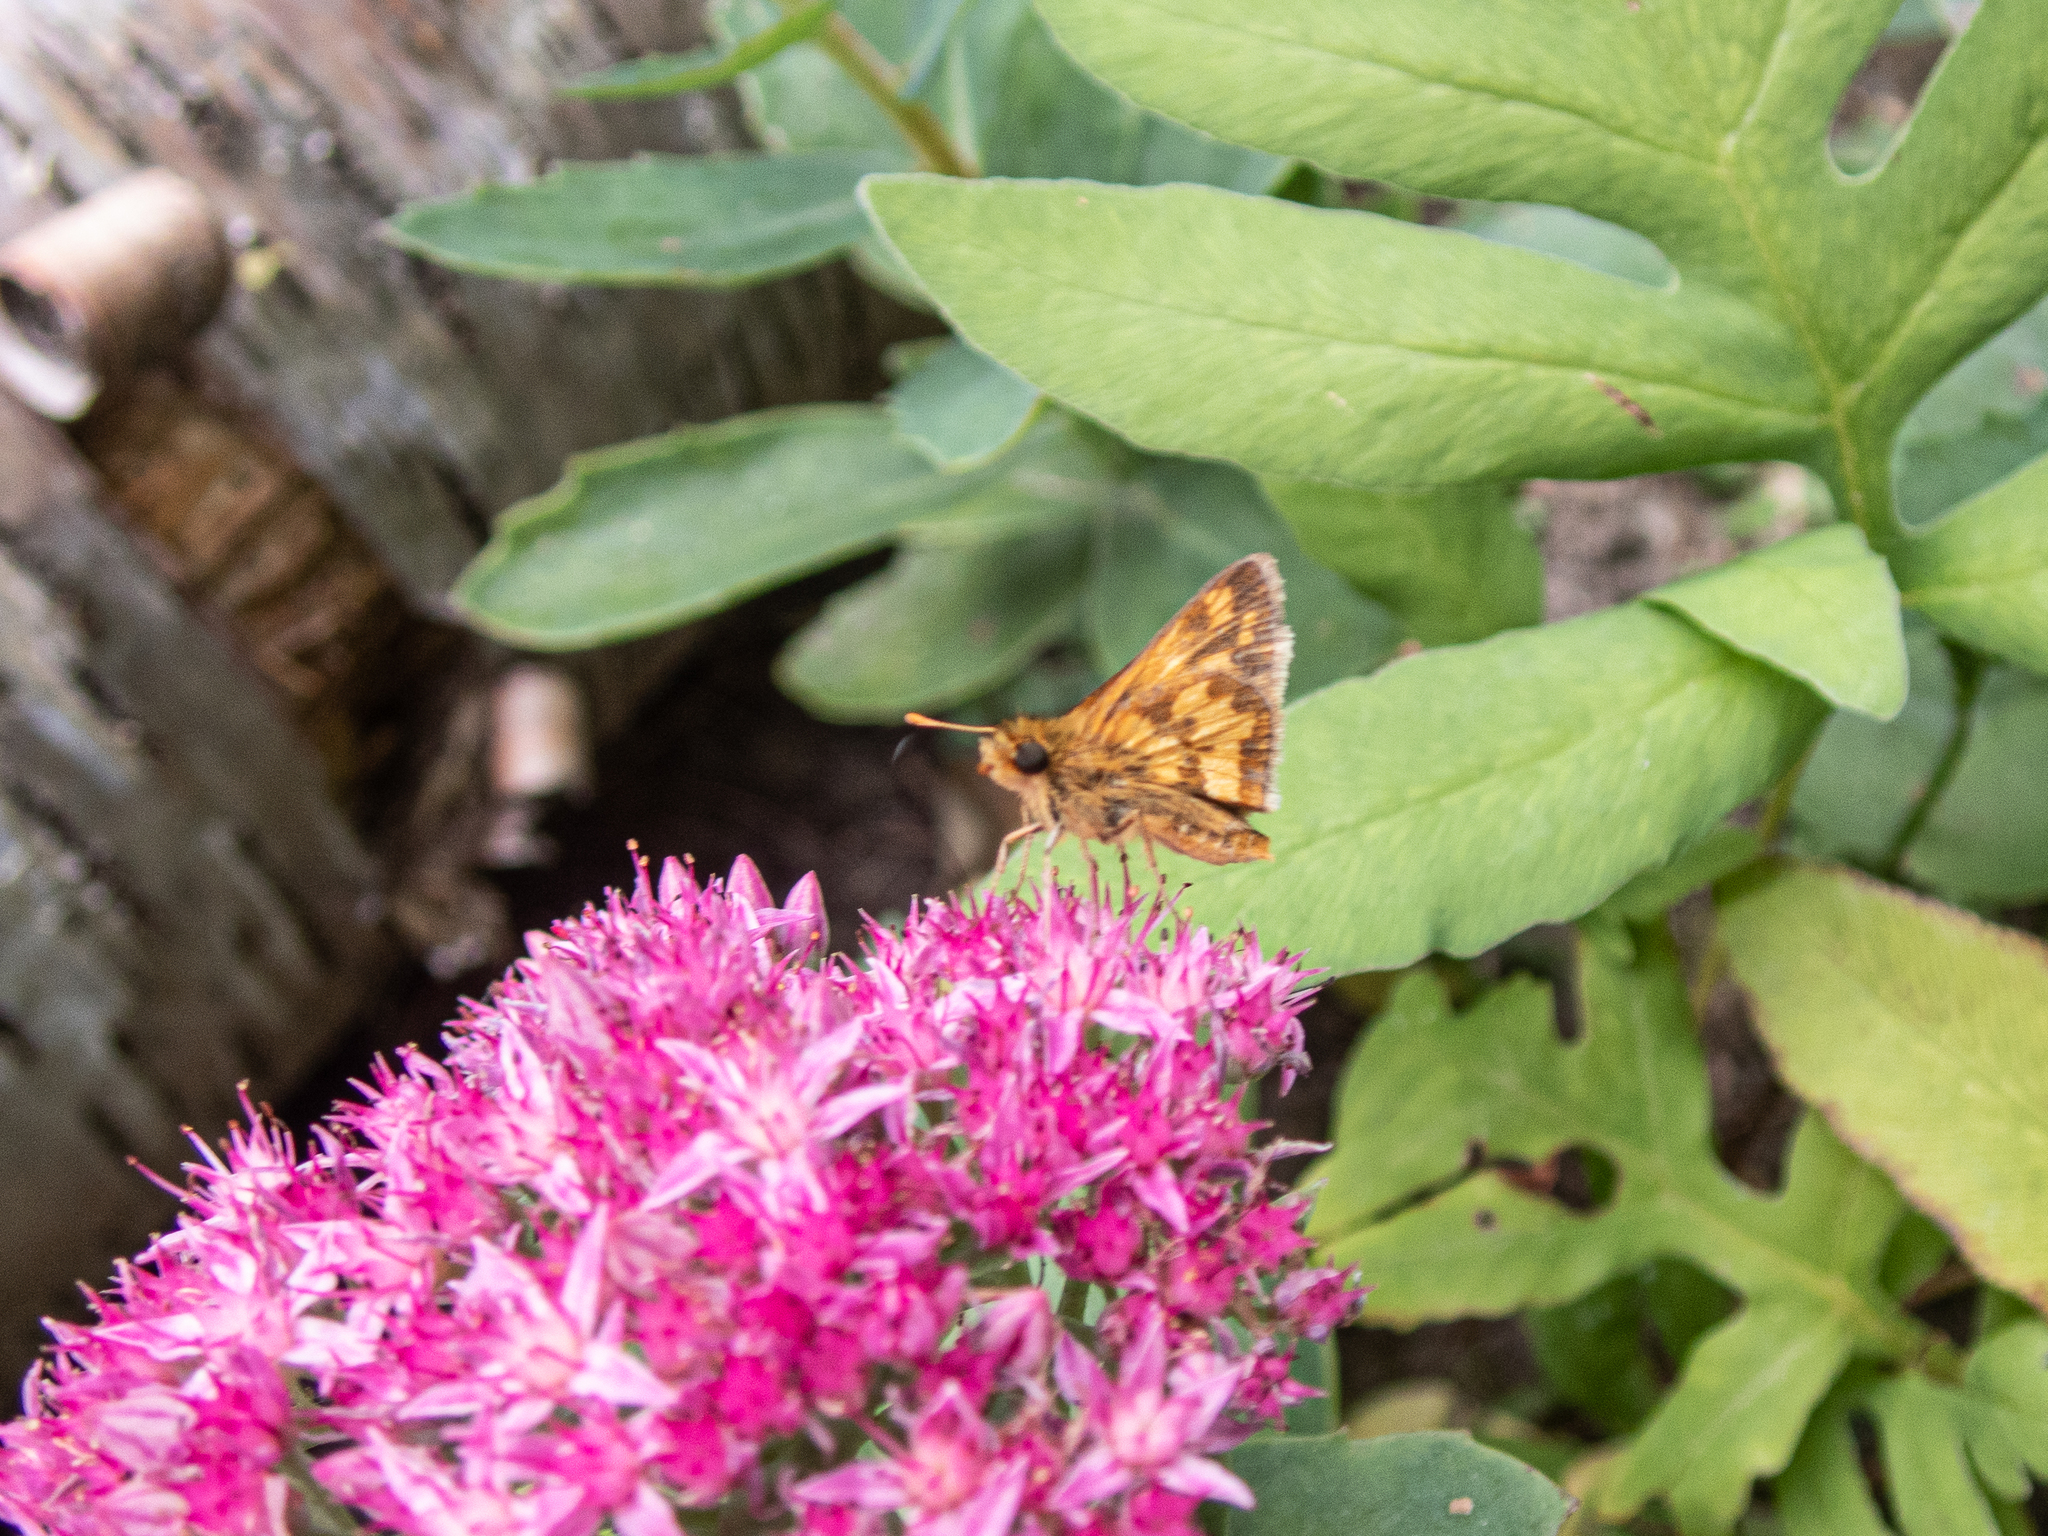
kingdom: Animalia
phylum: Arthropoda
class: Insecta
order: Lepidoptera
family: Hesperiidae
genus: Polites
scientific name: Polites coras
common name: Peck's skipper
